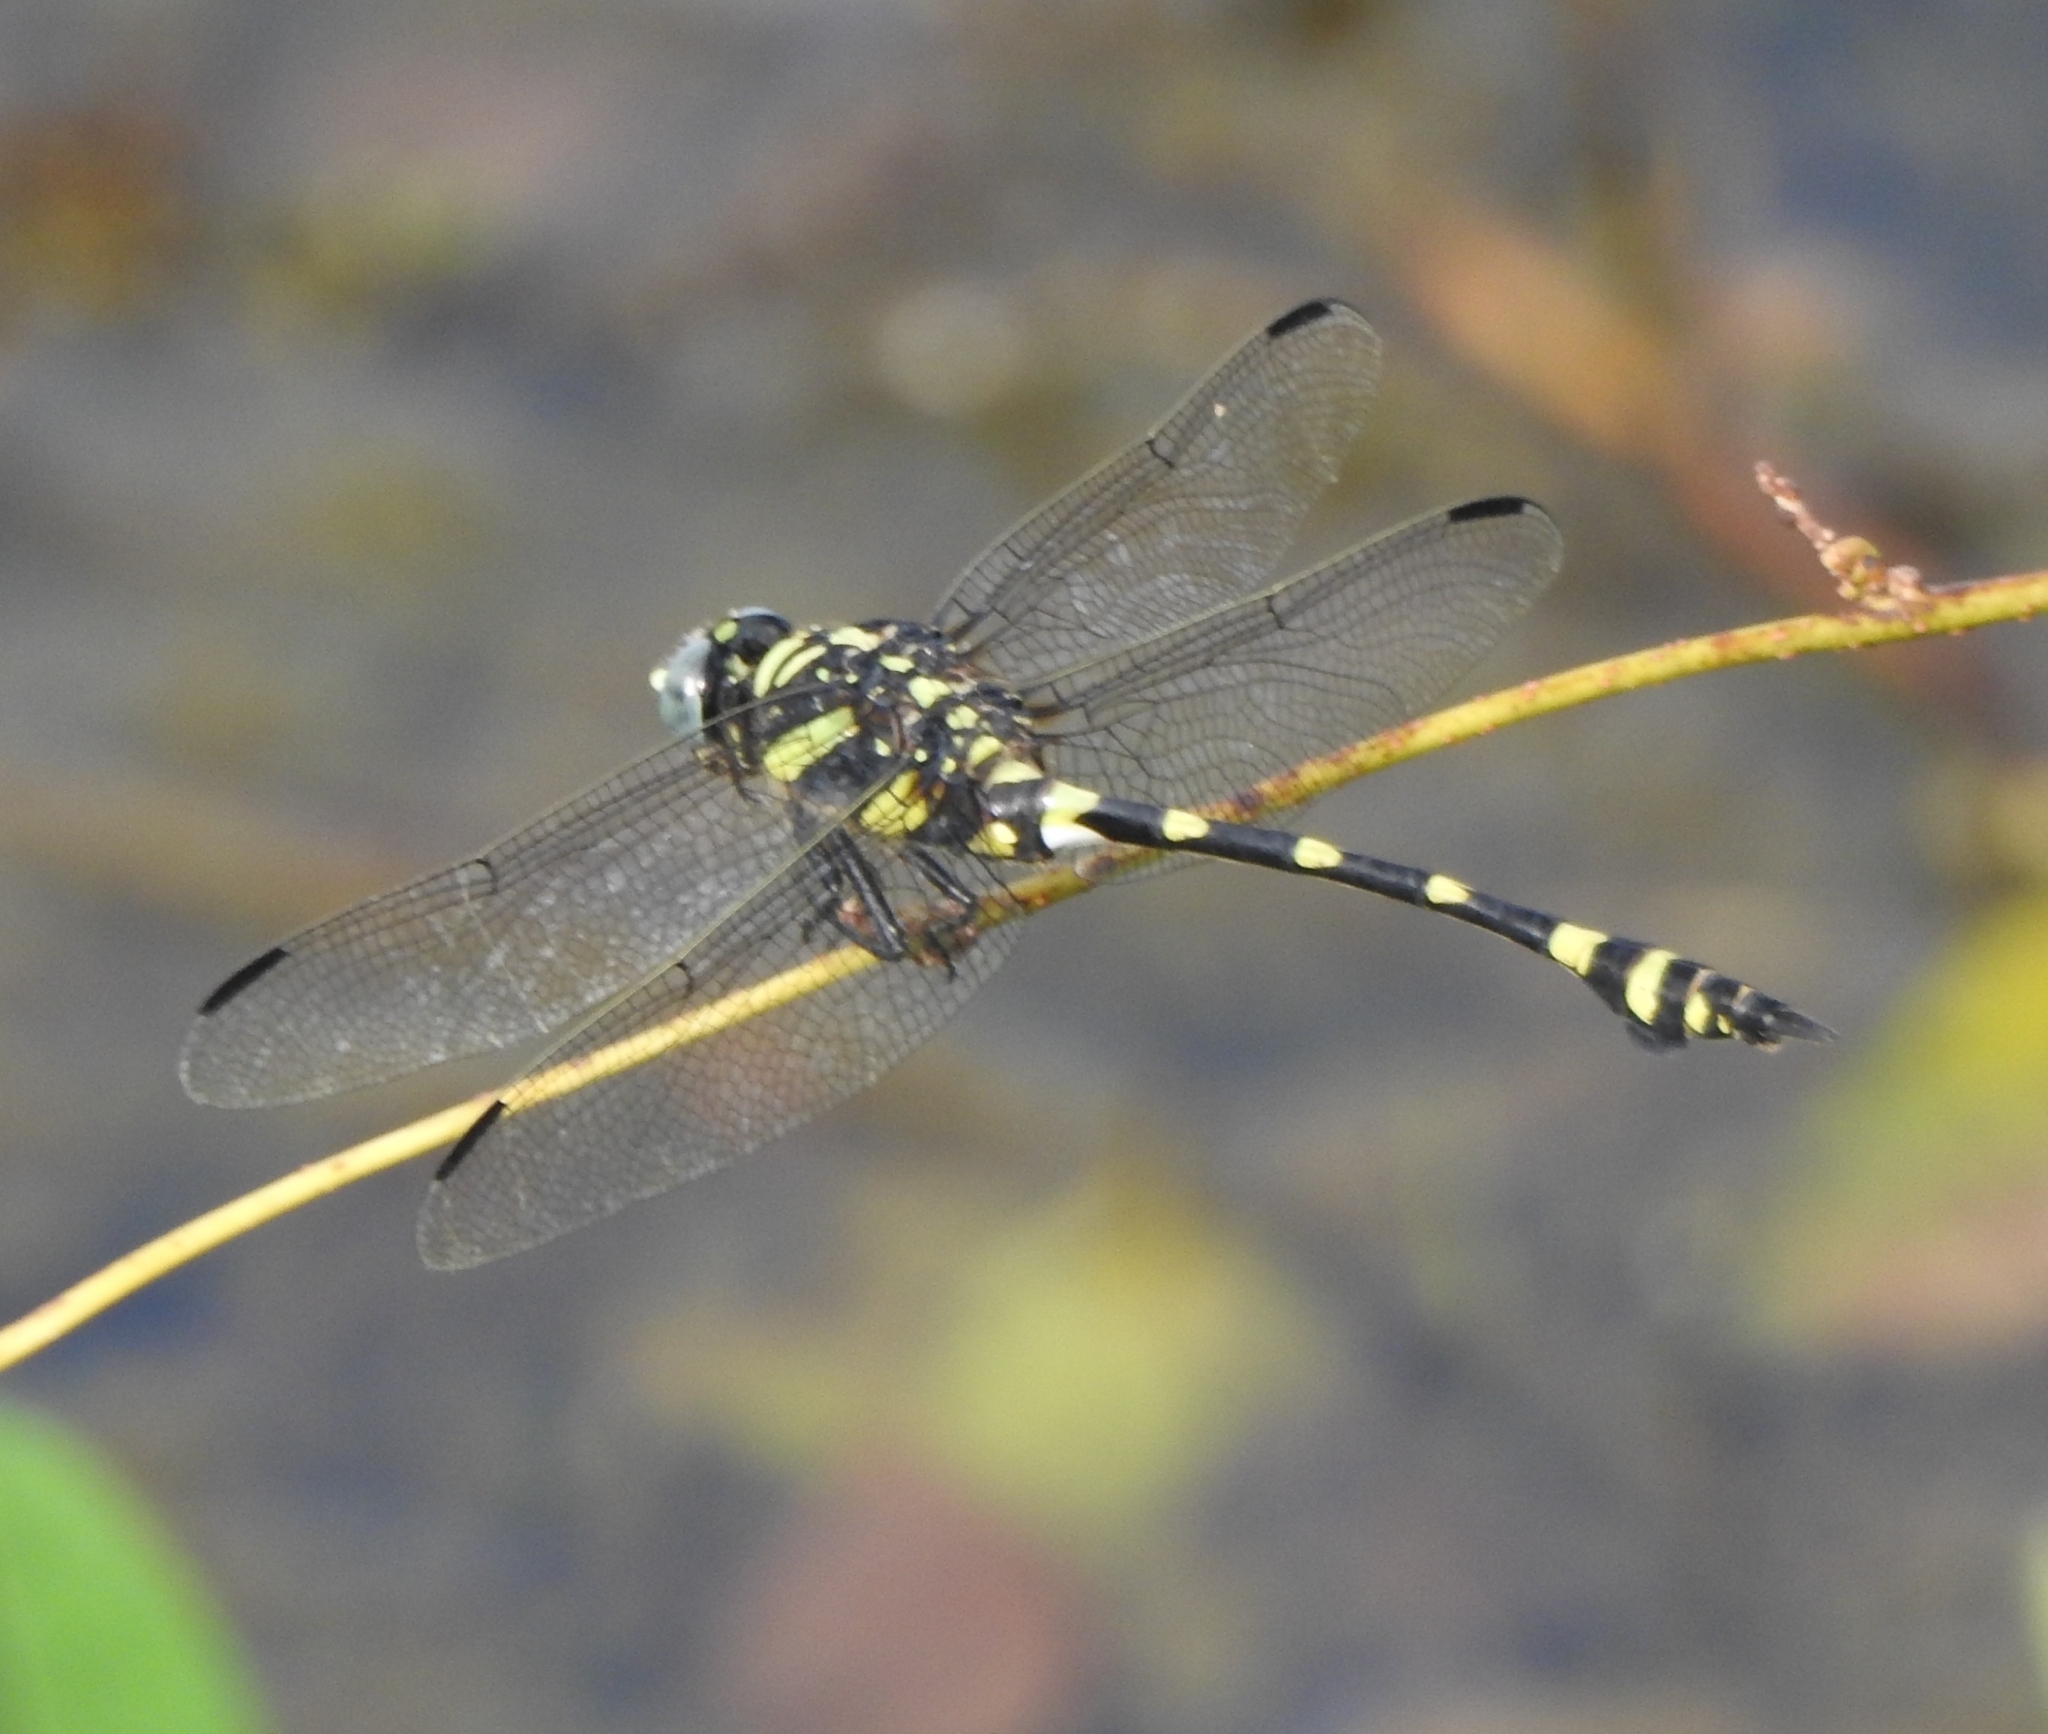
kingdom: Animalia
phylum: Arthropoda
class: Insecta
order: Odonata
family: Gomphidae
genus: Ictinogomphus
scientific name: Ictinogomphus rapax
